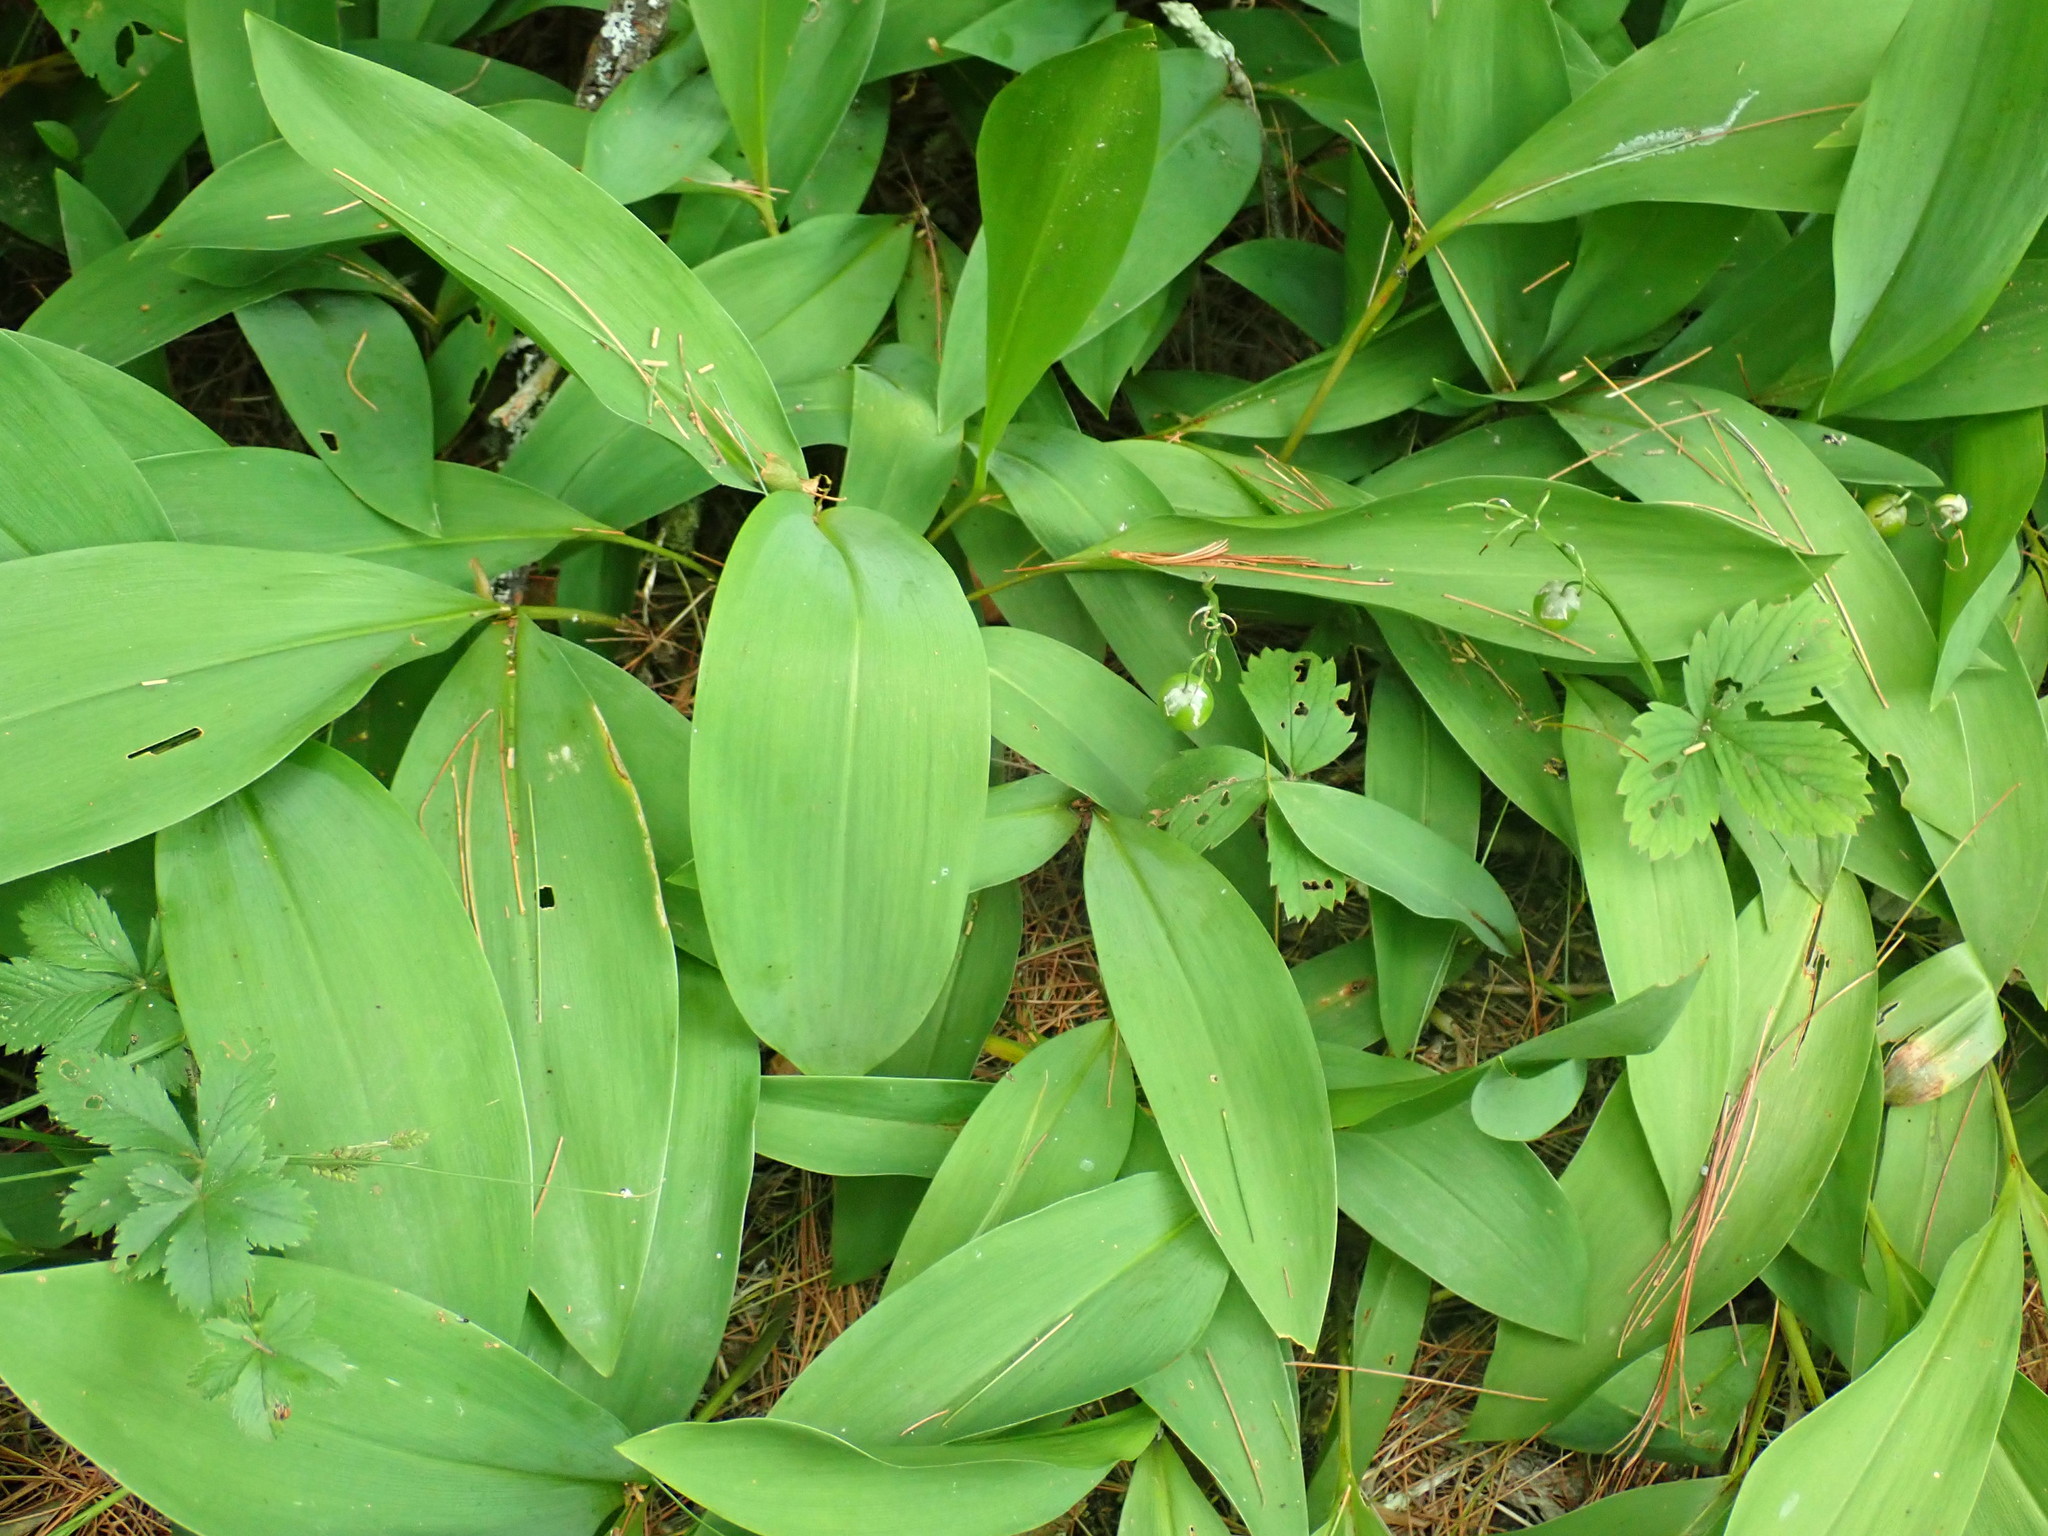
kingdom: Plantae
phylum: Tracheophyta
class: Liliopsida
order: Asparagales
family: Asparagaceae
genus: Convallaria
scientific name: Convallaria majalis
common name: Lily-of-the-valley
